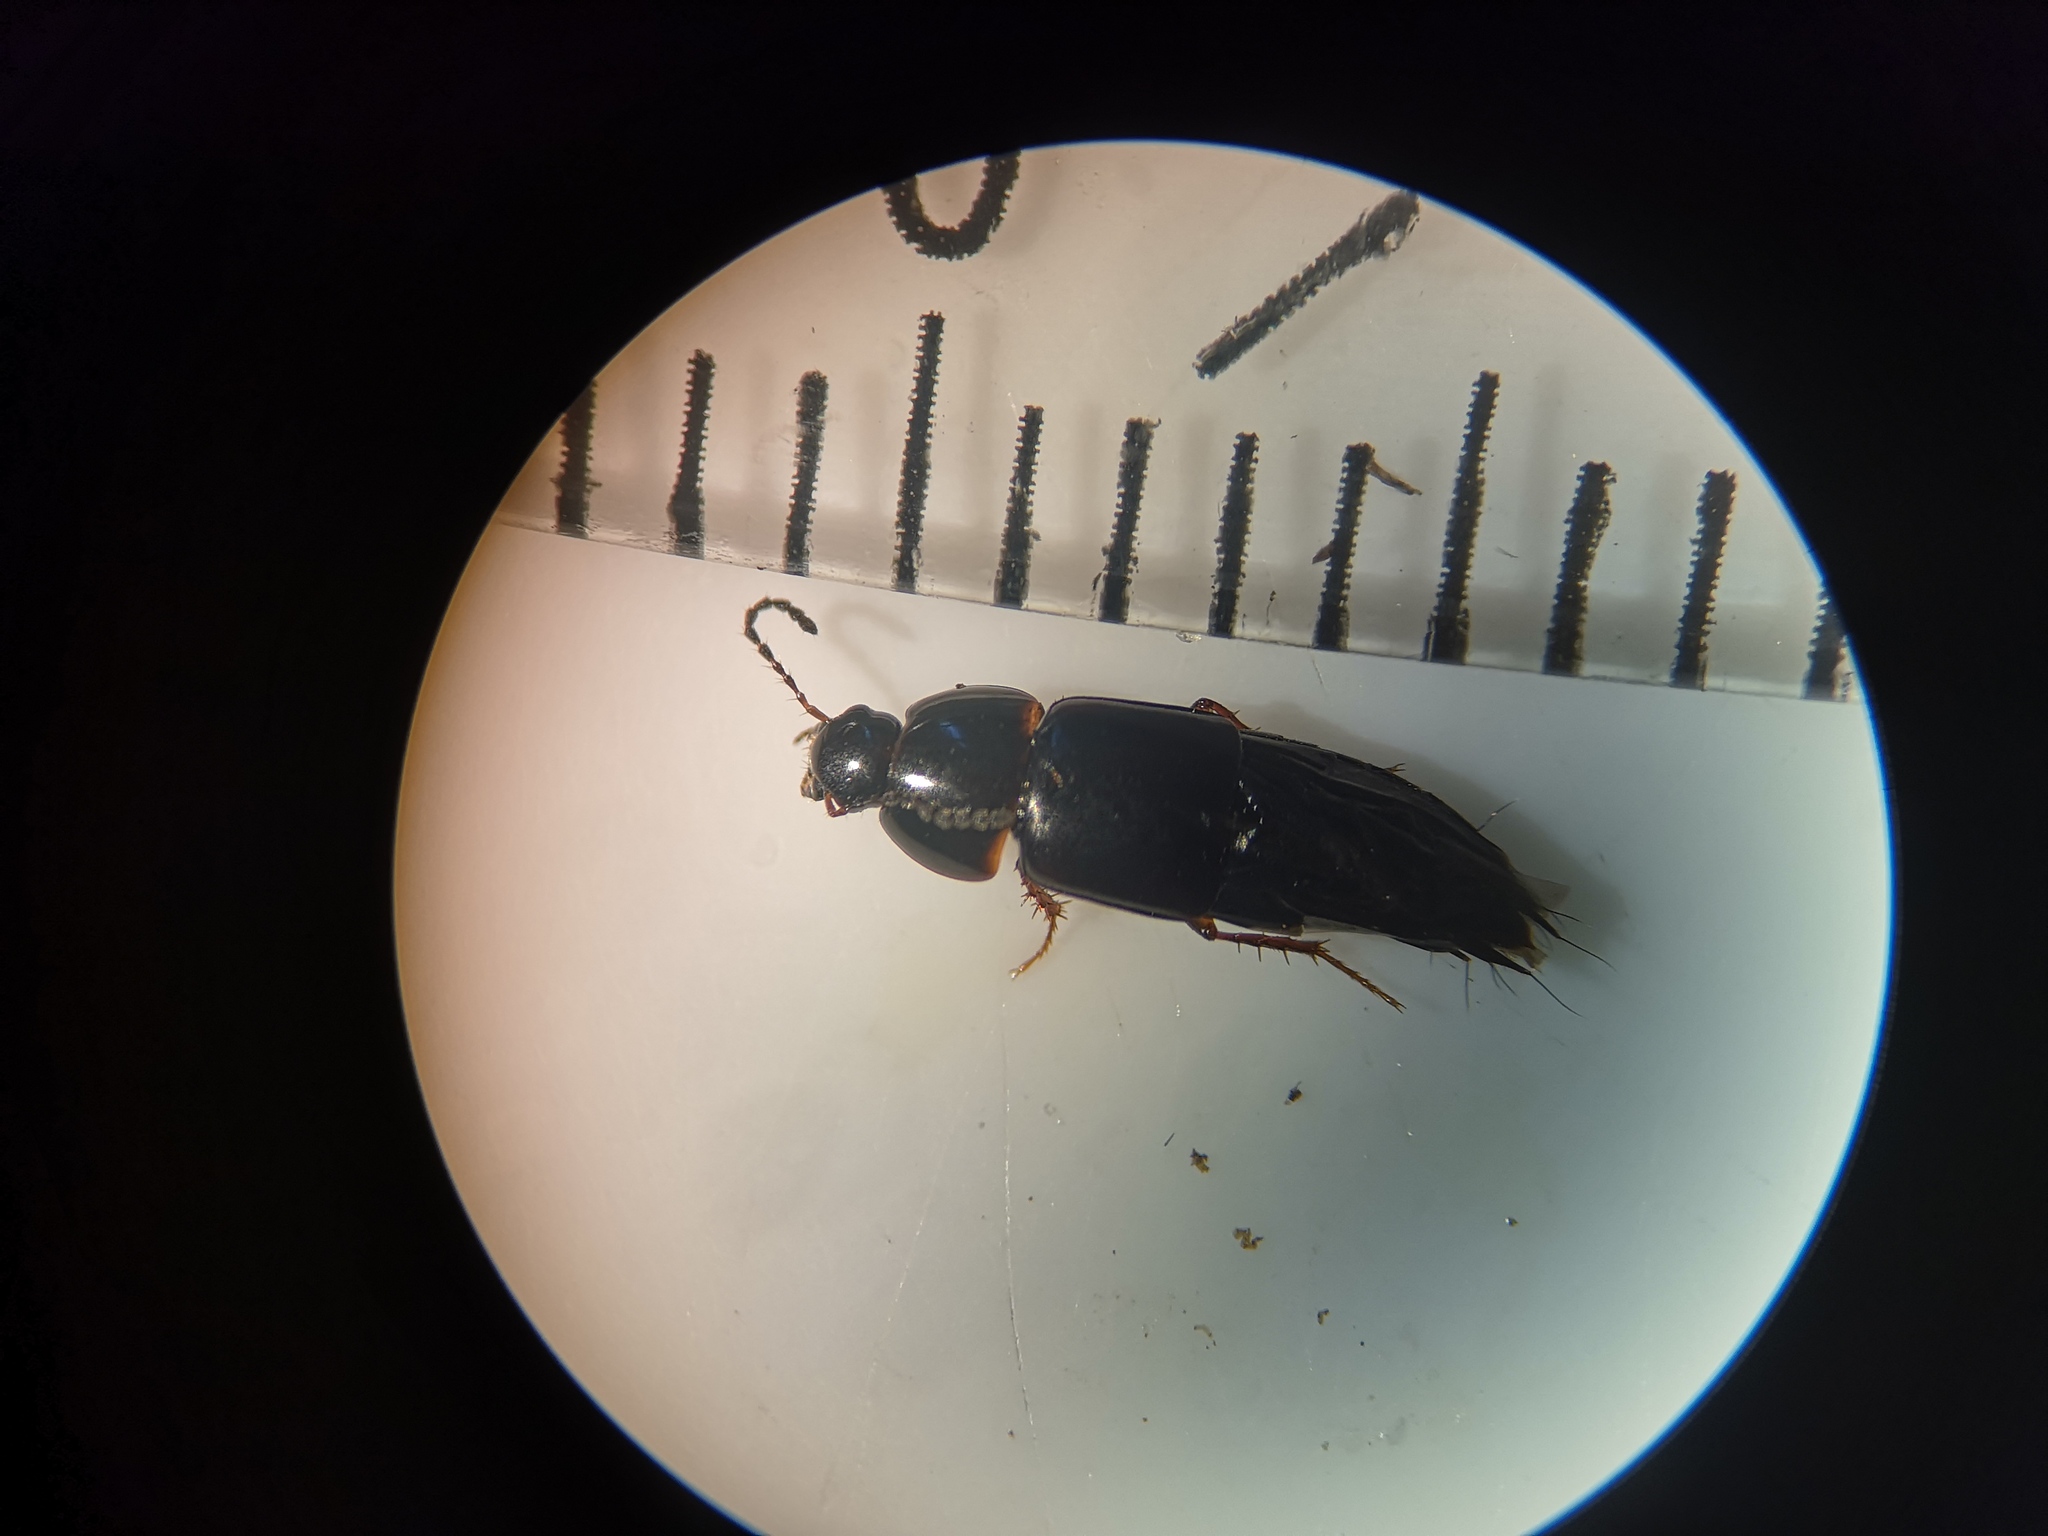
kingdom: Animalia
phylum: Arthropoda
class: Insecta
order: Coleoptera
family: Staphylinidae
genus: Tachinus
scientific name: Tachinus rufipes
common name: Rove beetle
